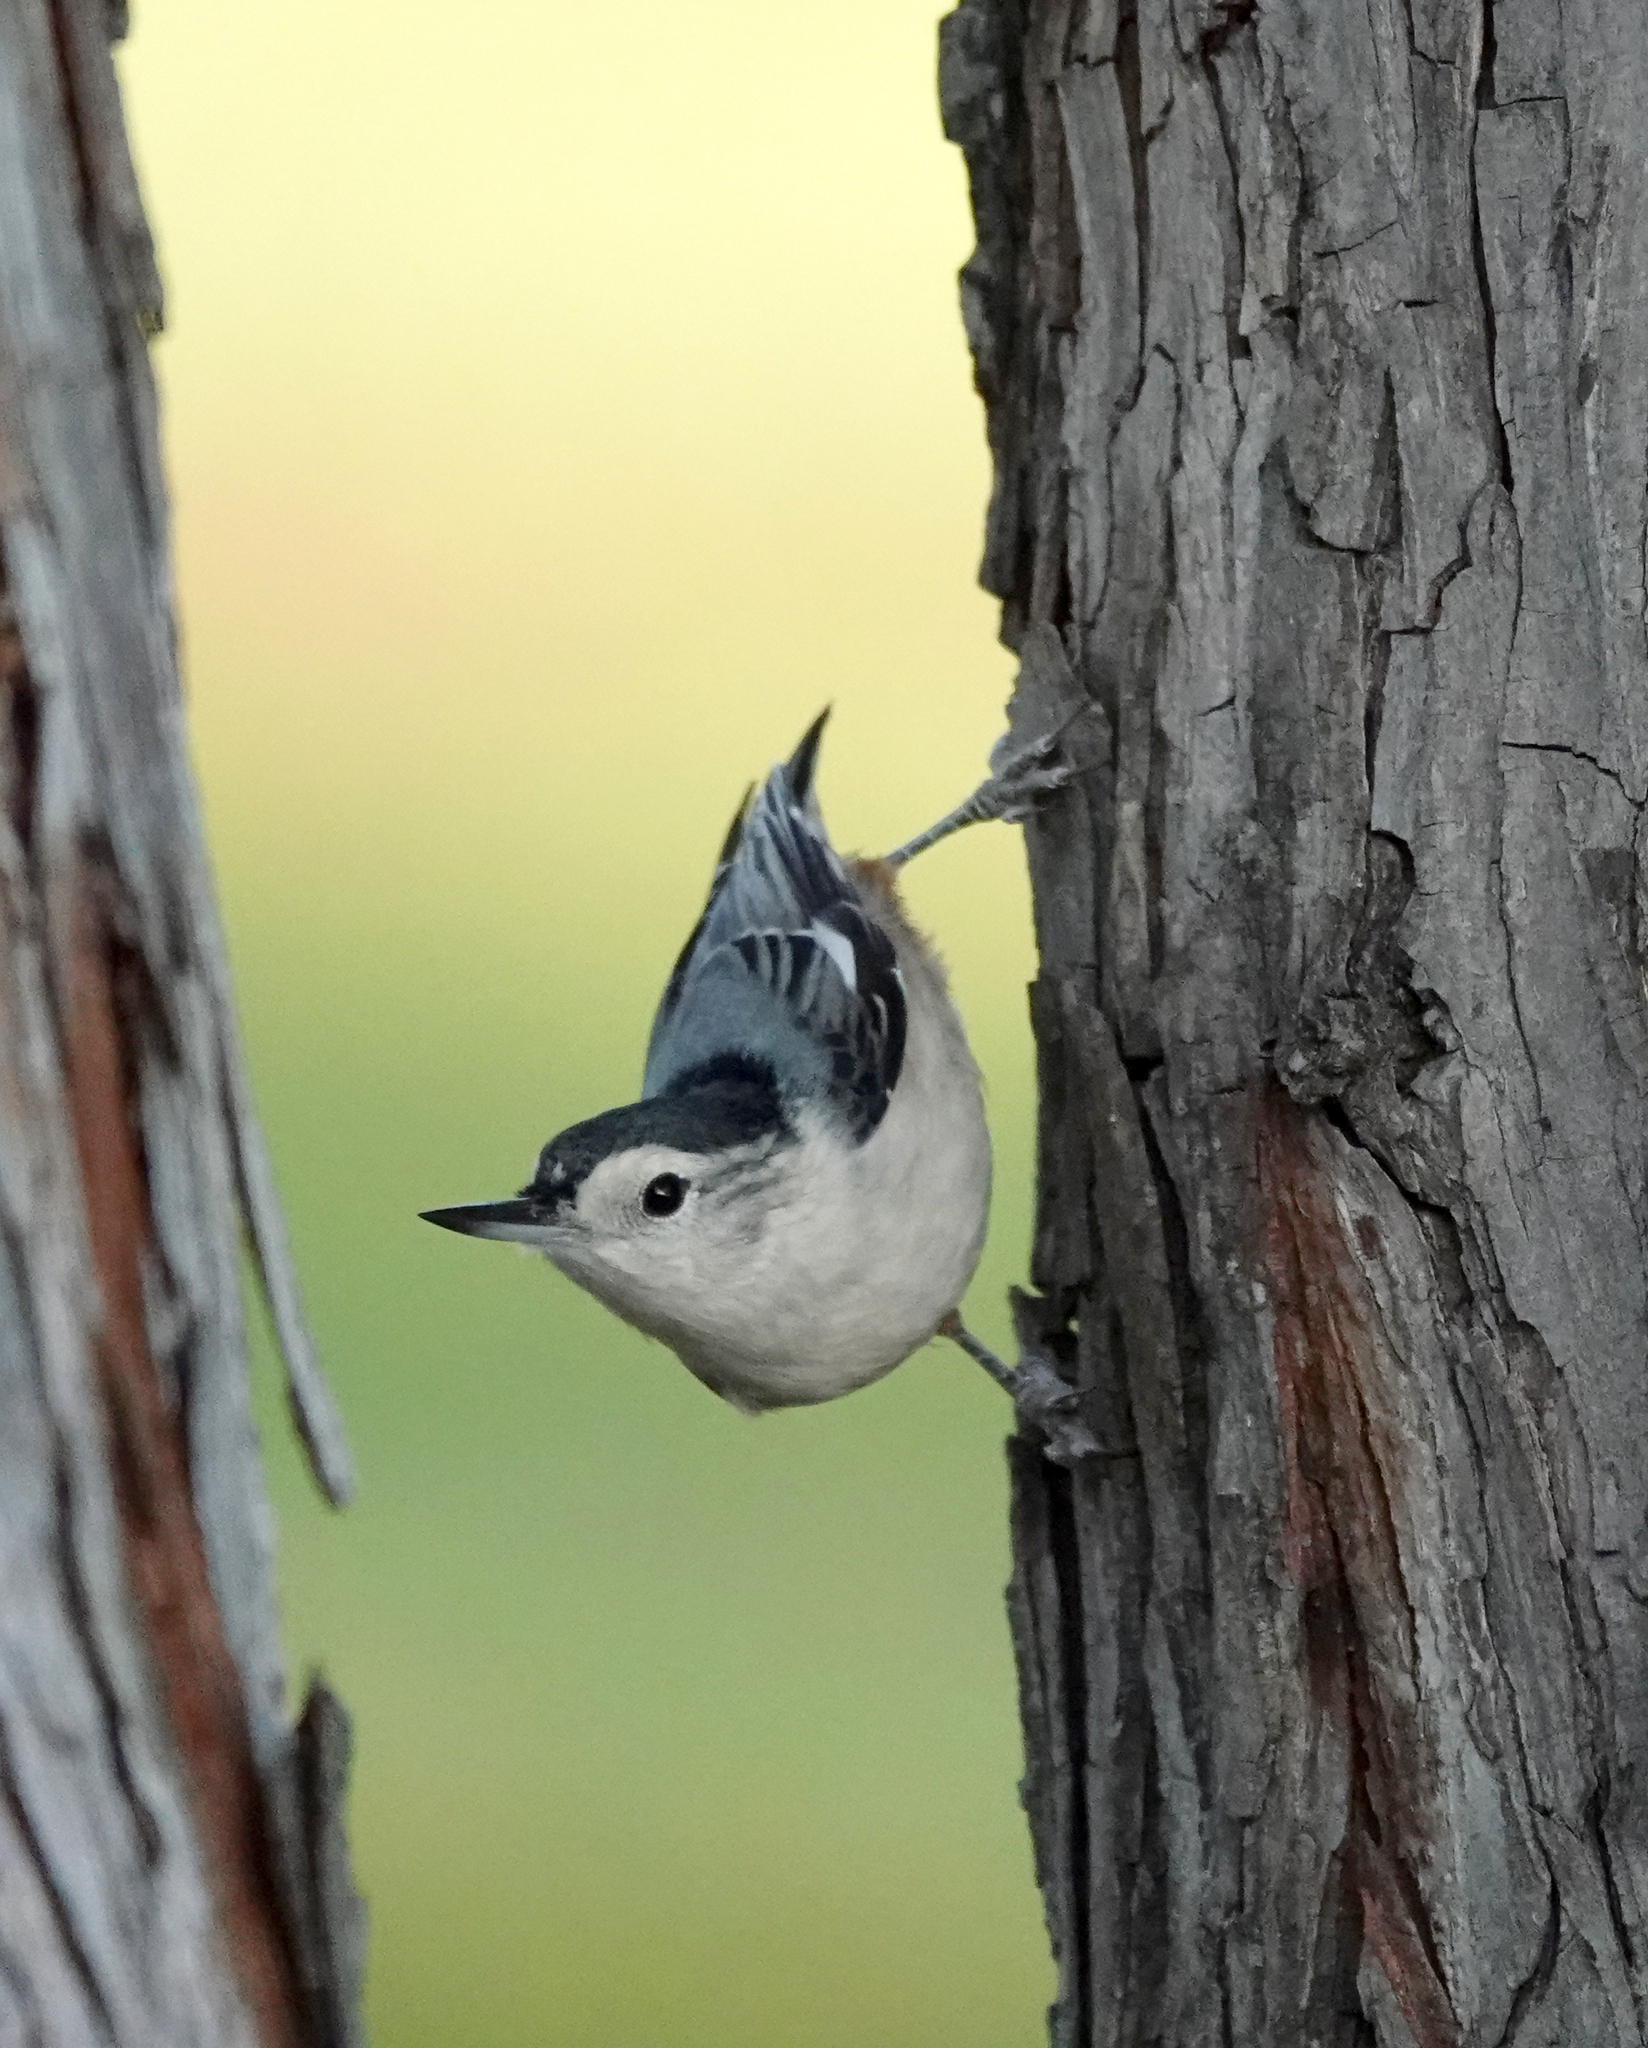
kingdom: Animalia
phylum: Chordata
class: Aves
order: Passeriformes
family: Sittidae
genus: Sitta
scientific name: Sitta carolinensis
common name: White-breasted nuthatch
